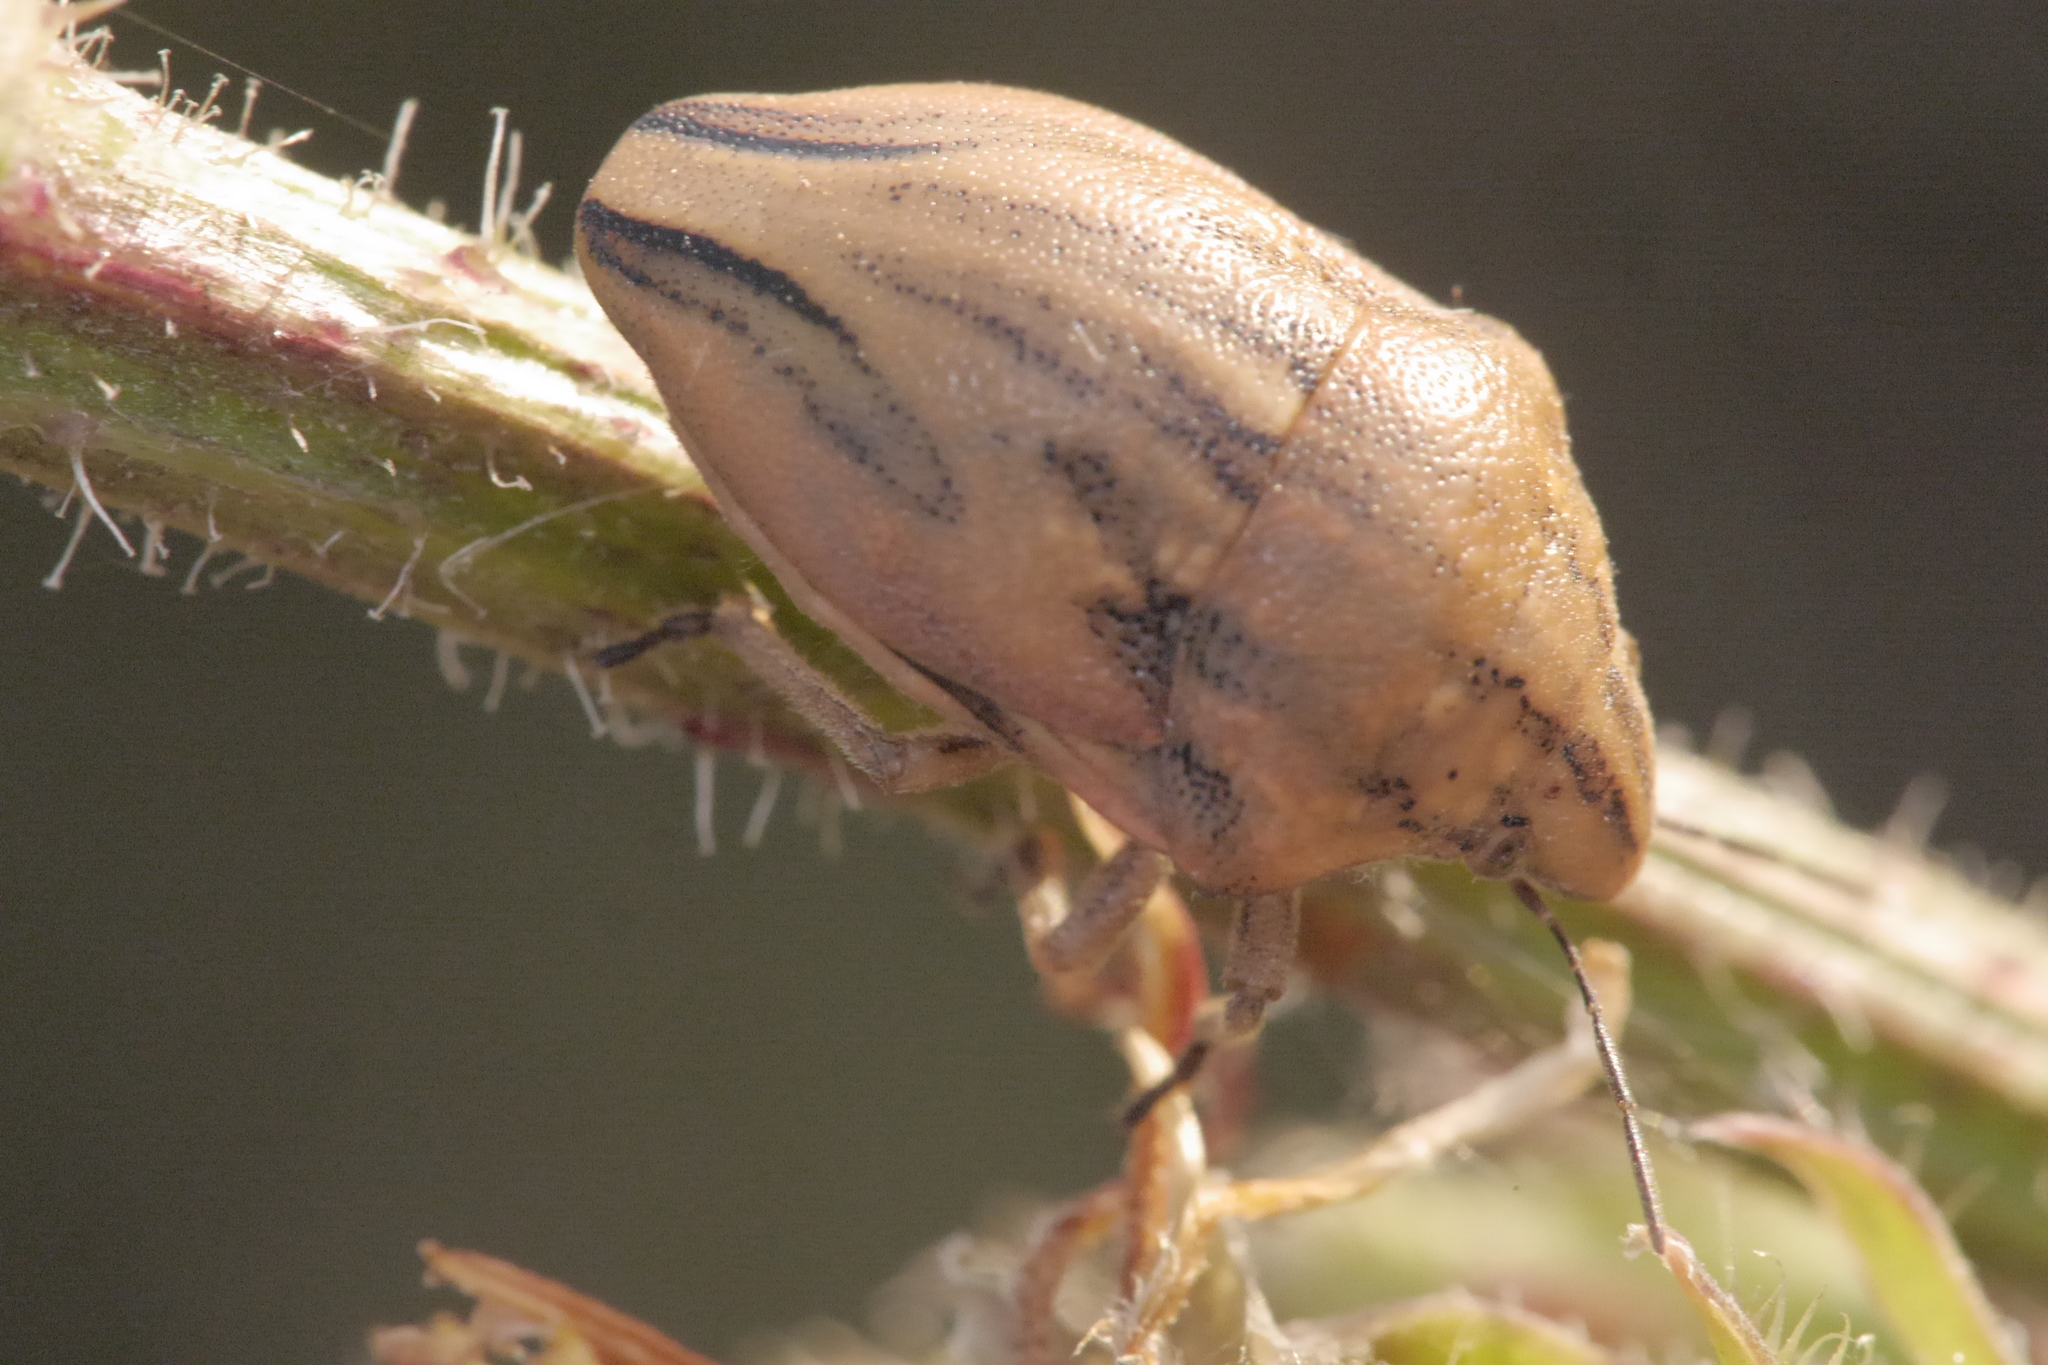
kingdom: Animalia
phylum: Arthropoda
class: Insecta
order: Hemiptera
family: Scutelleridae
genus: Odontotarsus
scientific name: Odontotarsus purpureolineatus
